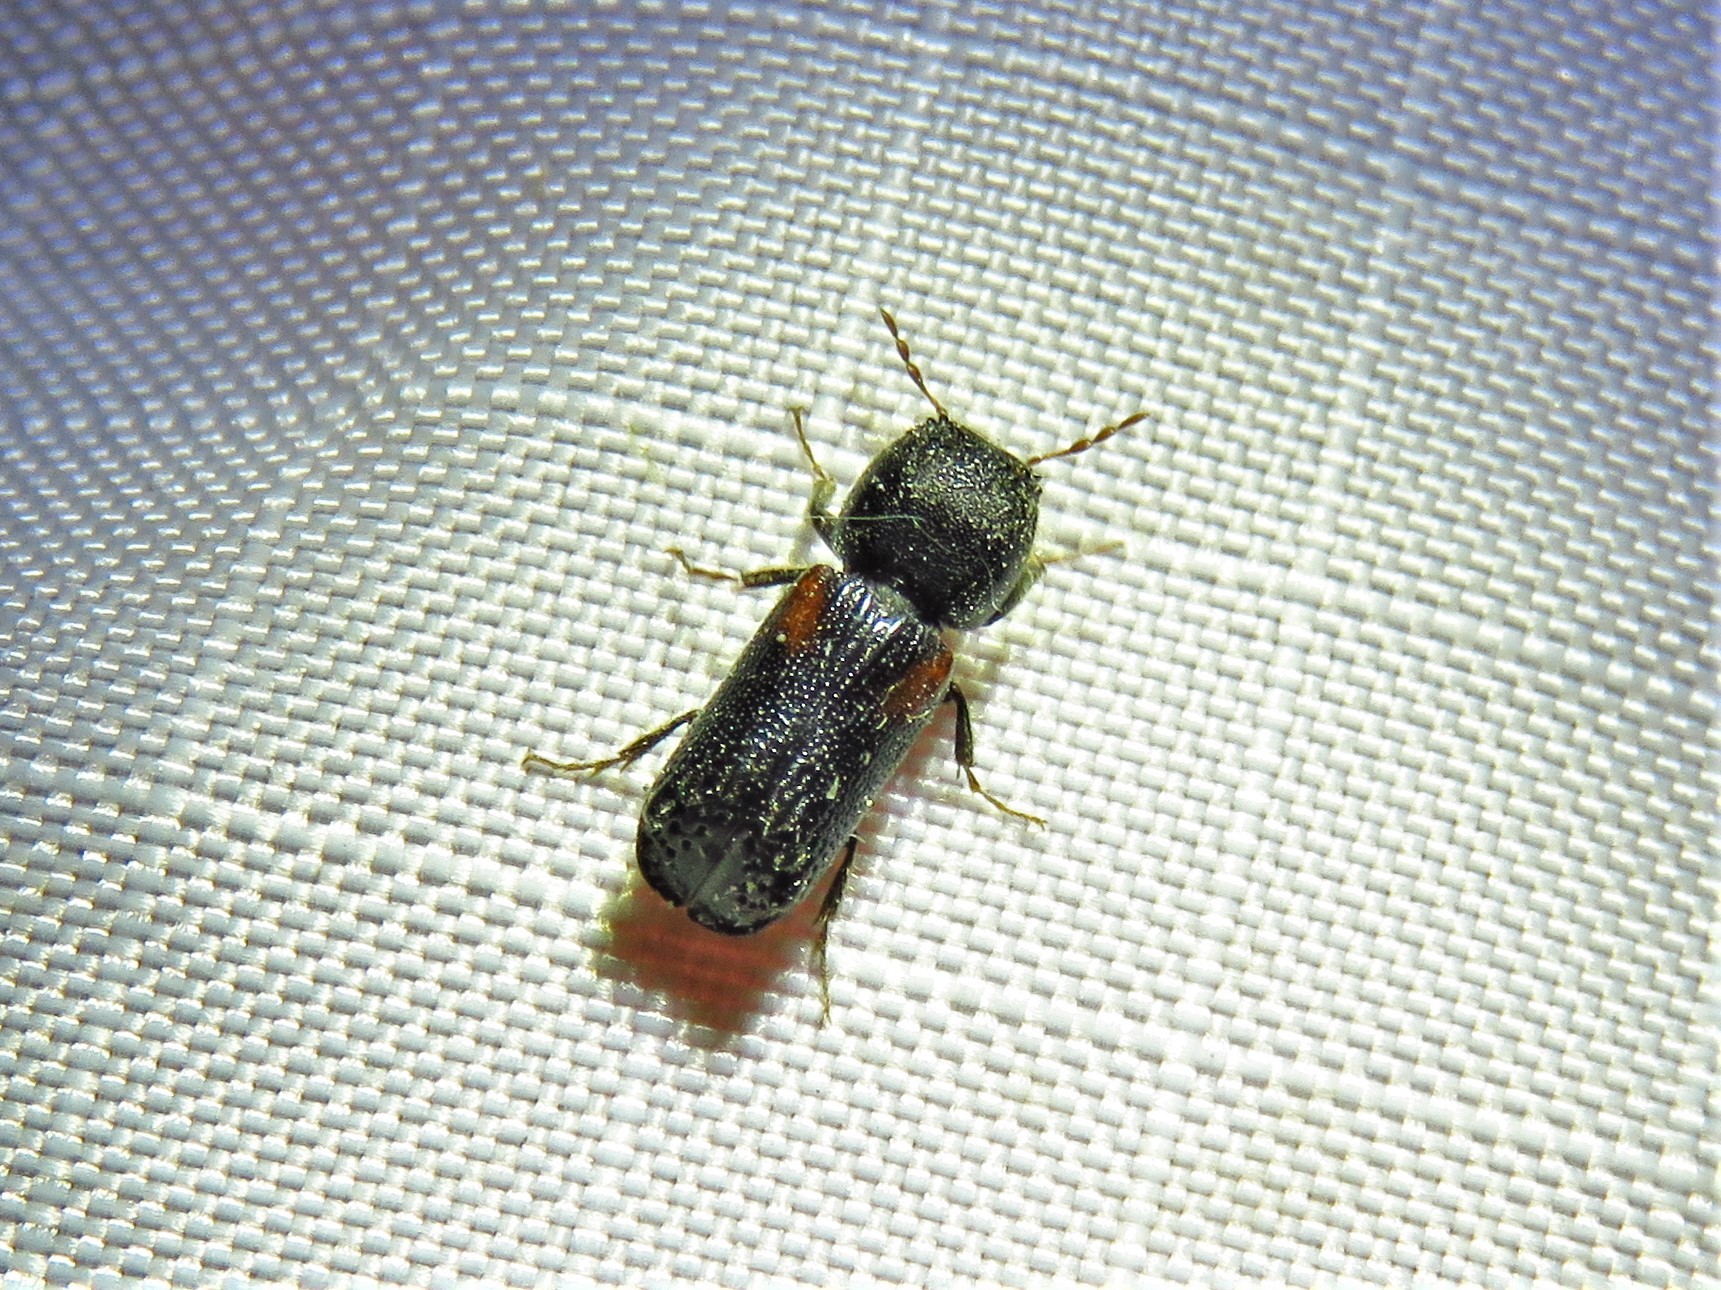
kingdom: Animalia
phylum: Arthropoda
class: Insecta
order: Coleoptera
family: Bostrichidae
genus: Xylobiops
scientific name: Xylobiops basilaris
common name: Red-shouldered bostrichid
